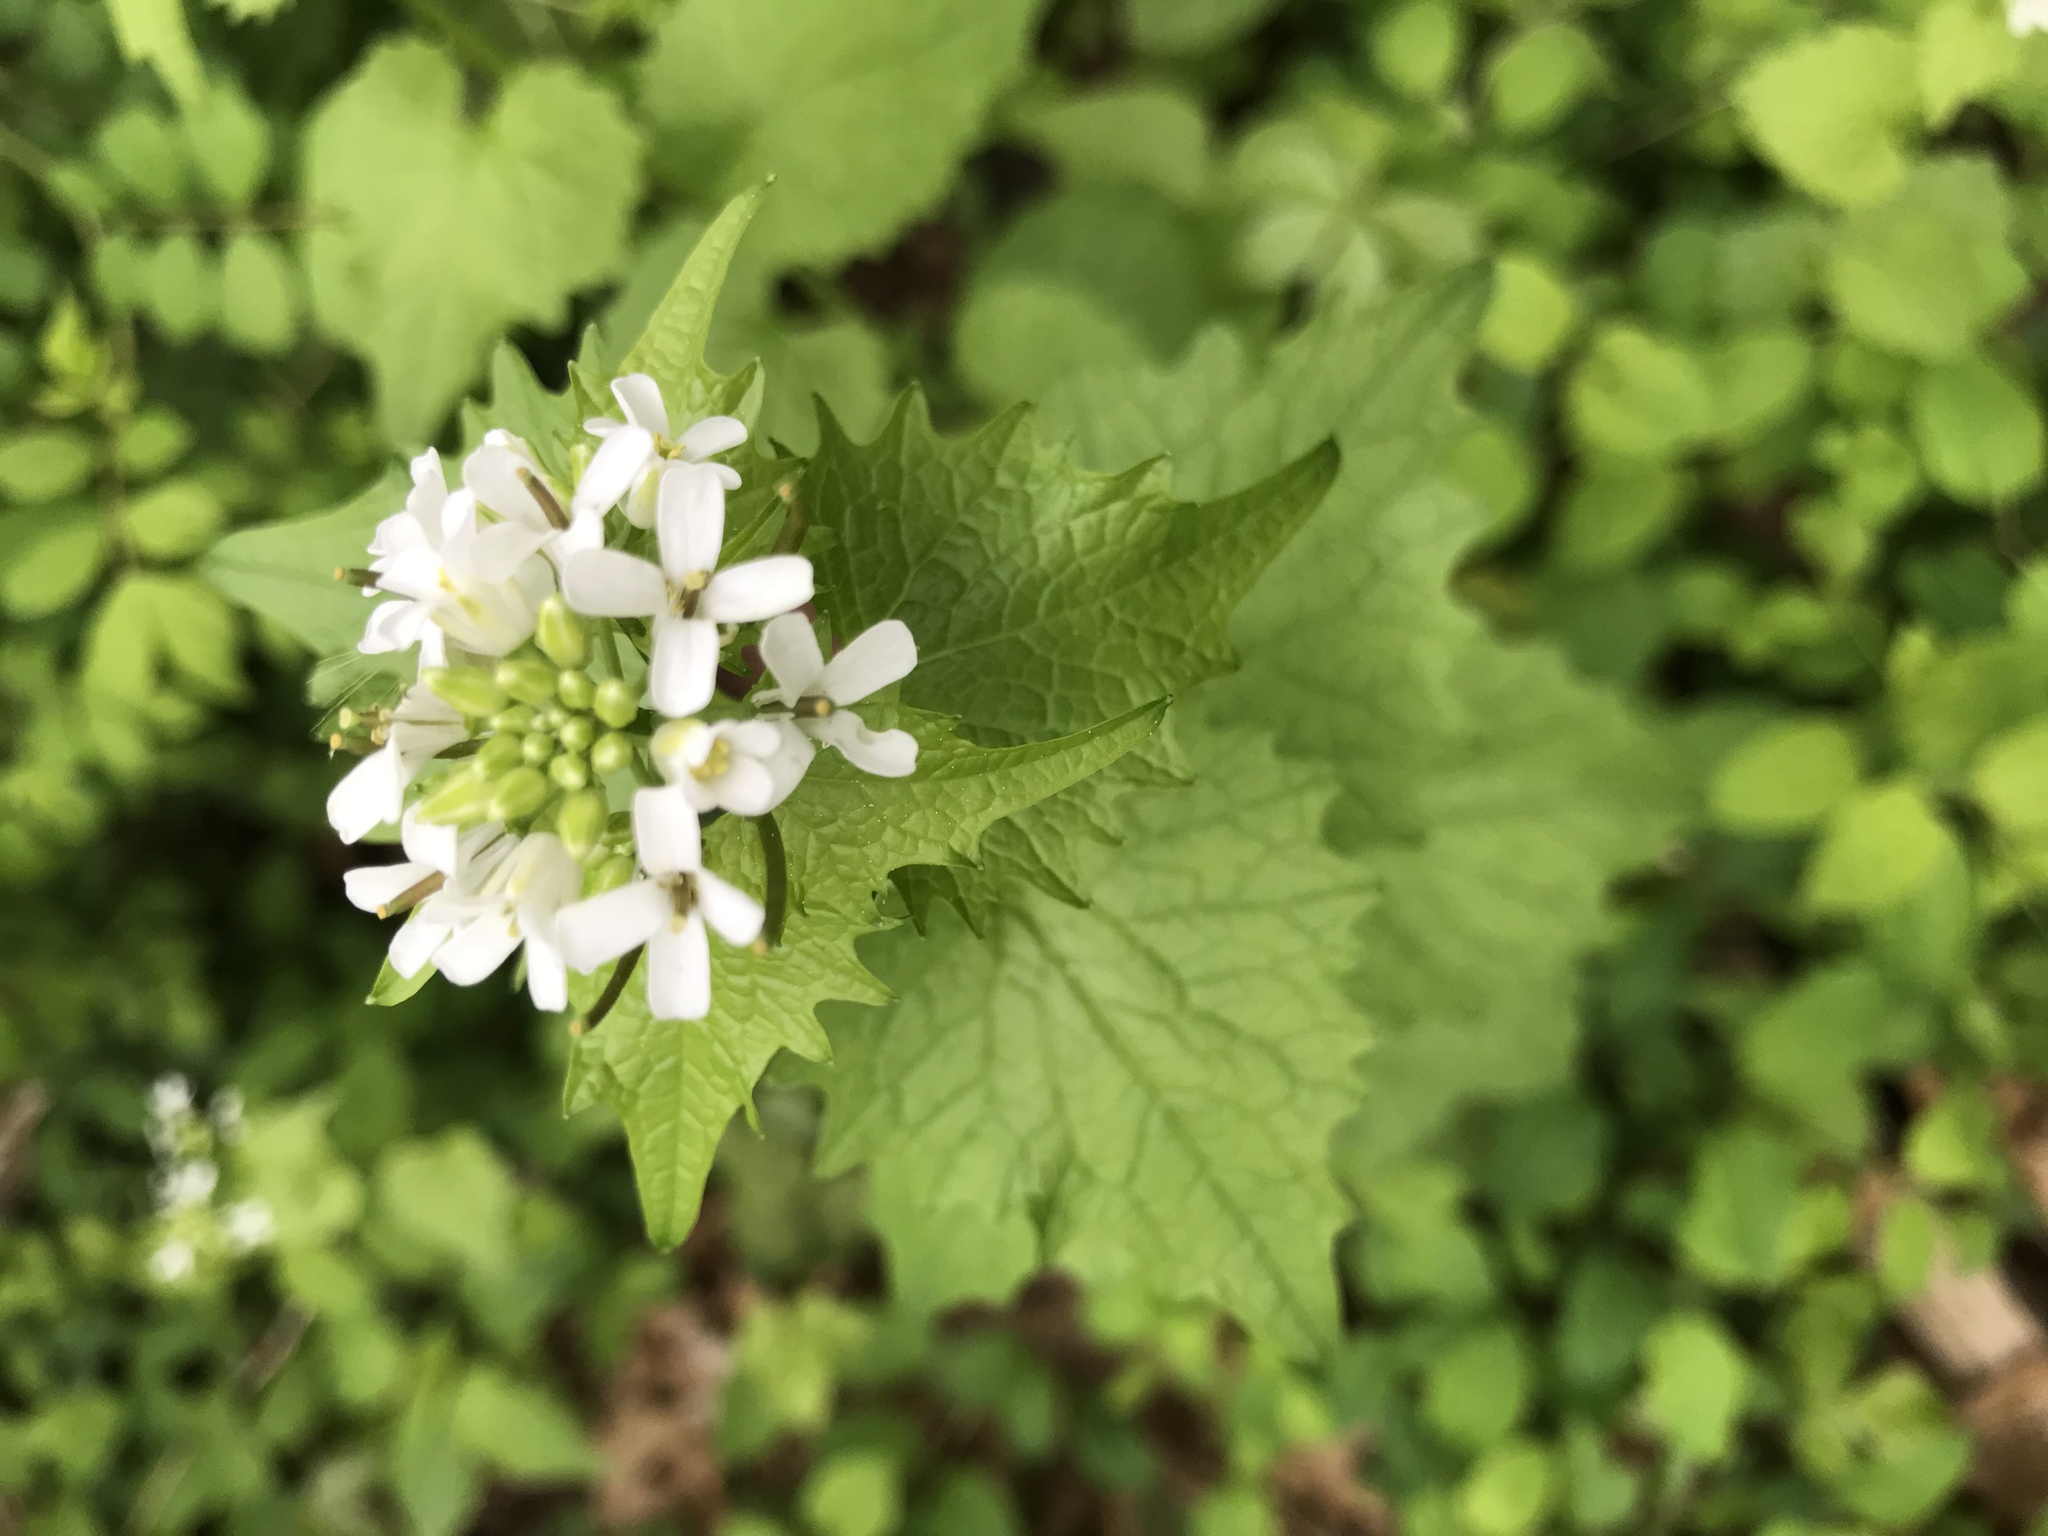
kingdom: Plantae
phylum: Tracheophyta
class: Magnoliopsida
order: Brassicales
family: Brassicaceae
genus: Alliaria
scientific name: Alliaria petiolata
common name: Garlic mustard
